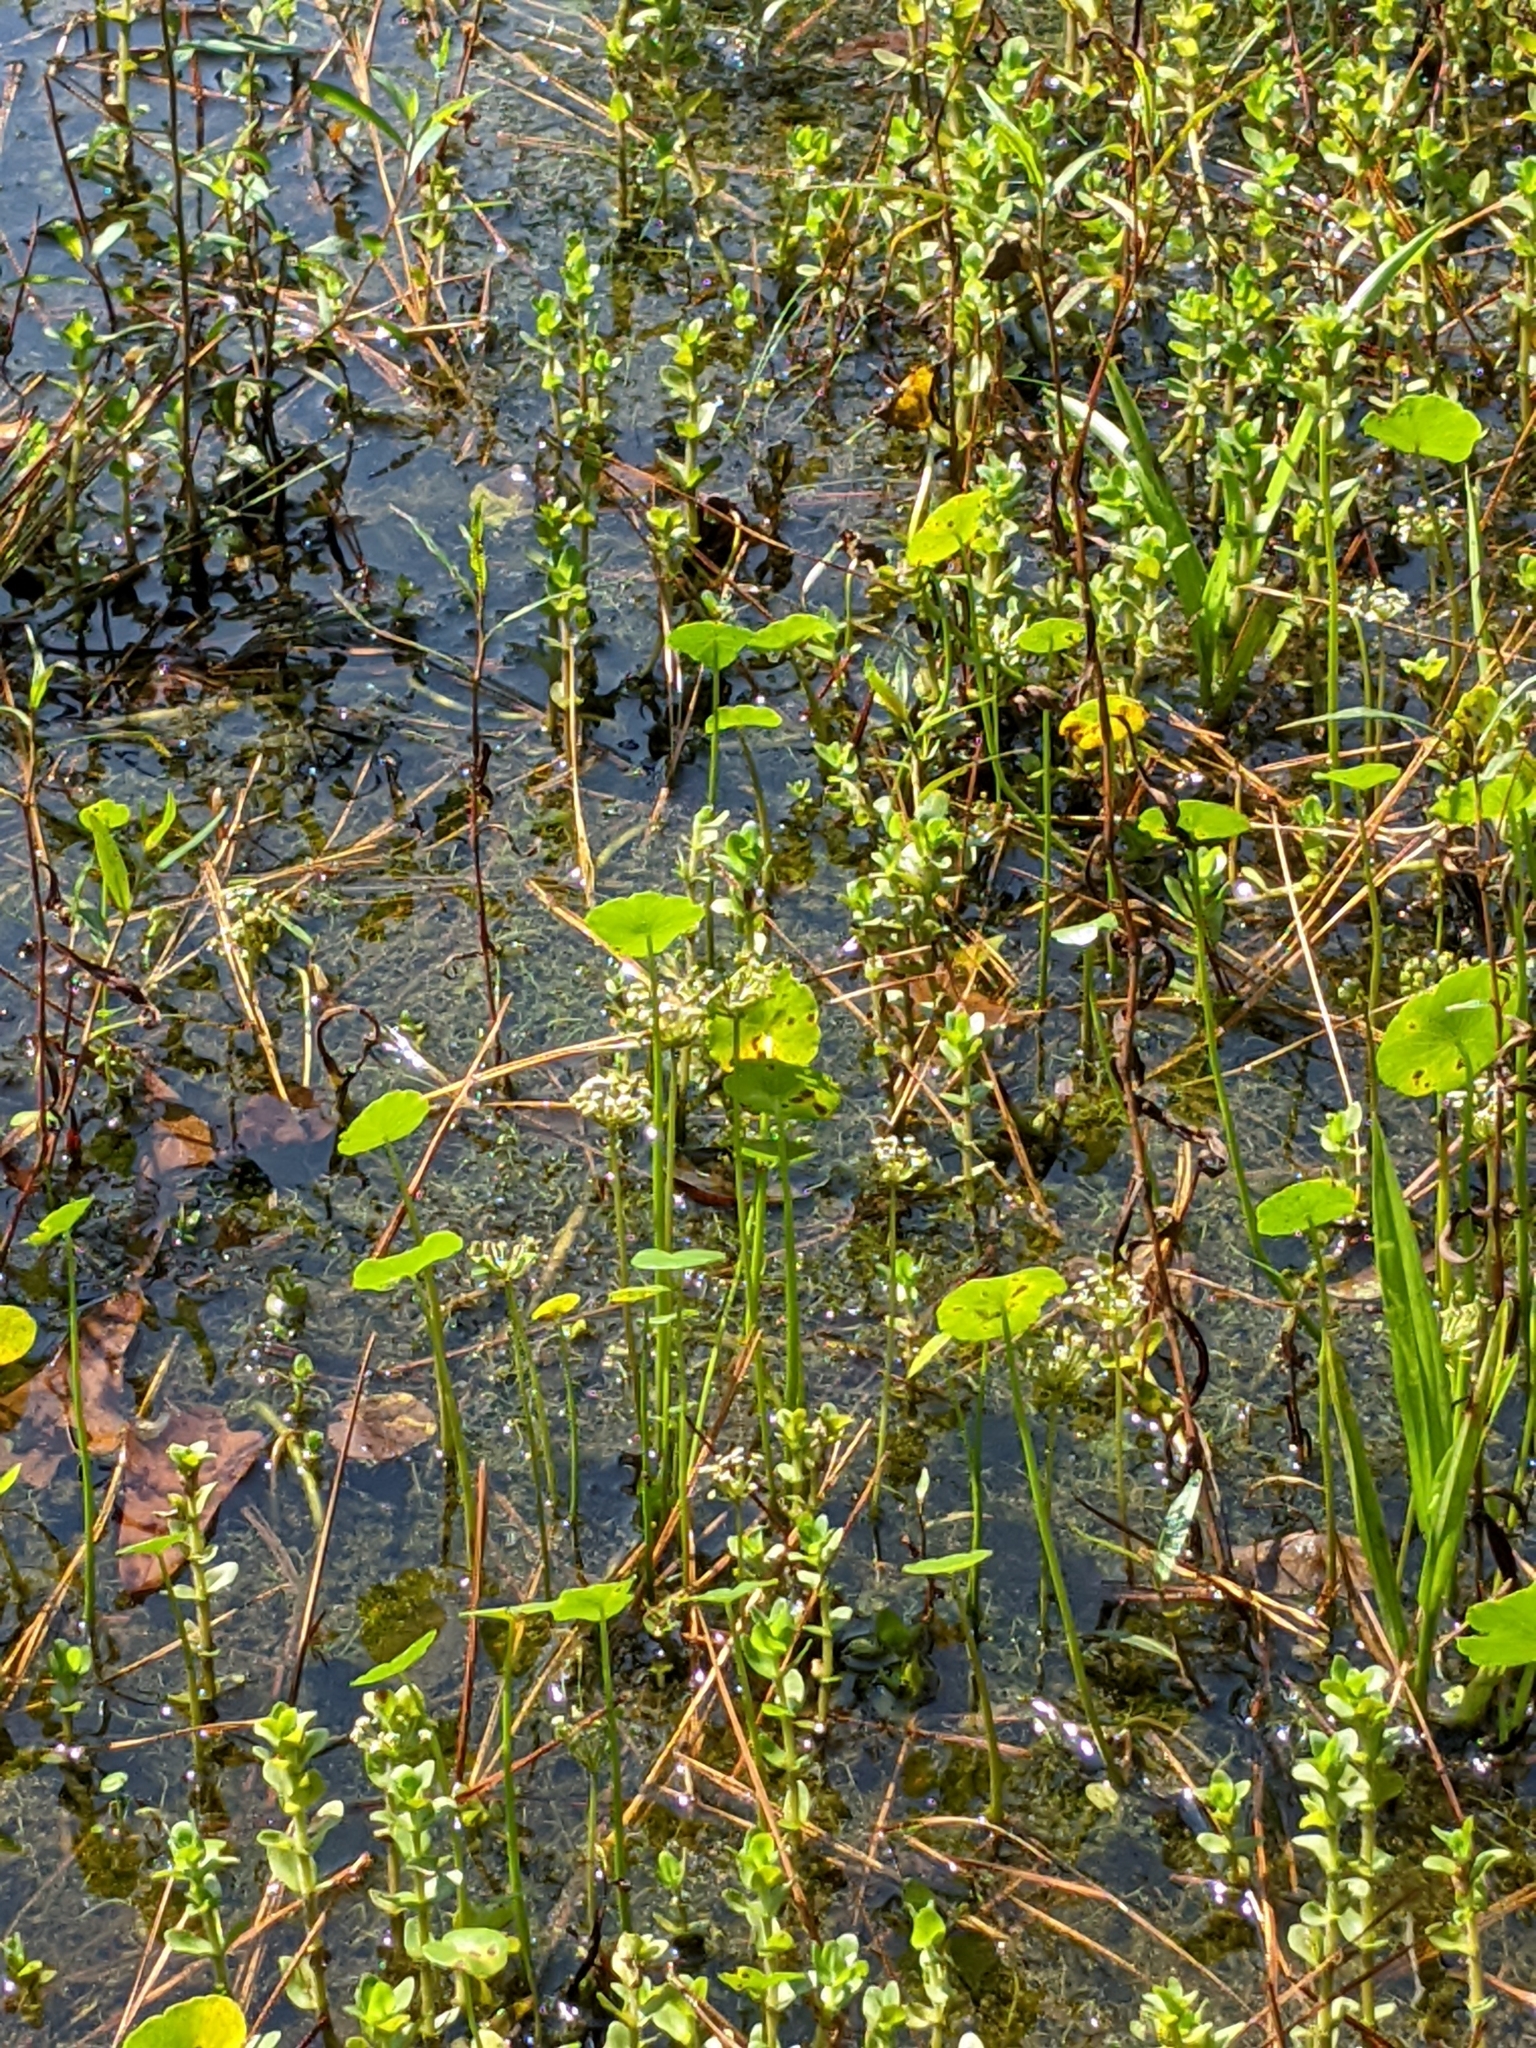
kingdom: Plantae
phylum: Tracheophyta
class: Magnoliopsida
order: Apiales
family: Araliaceae
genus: Hydrocotyle
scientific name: Hydrocotyle umbellata
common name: Water pennywort
